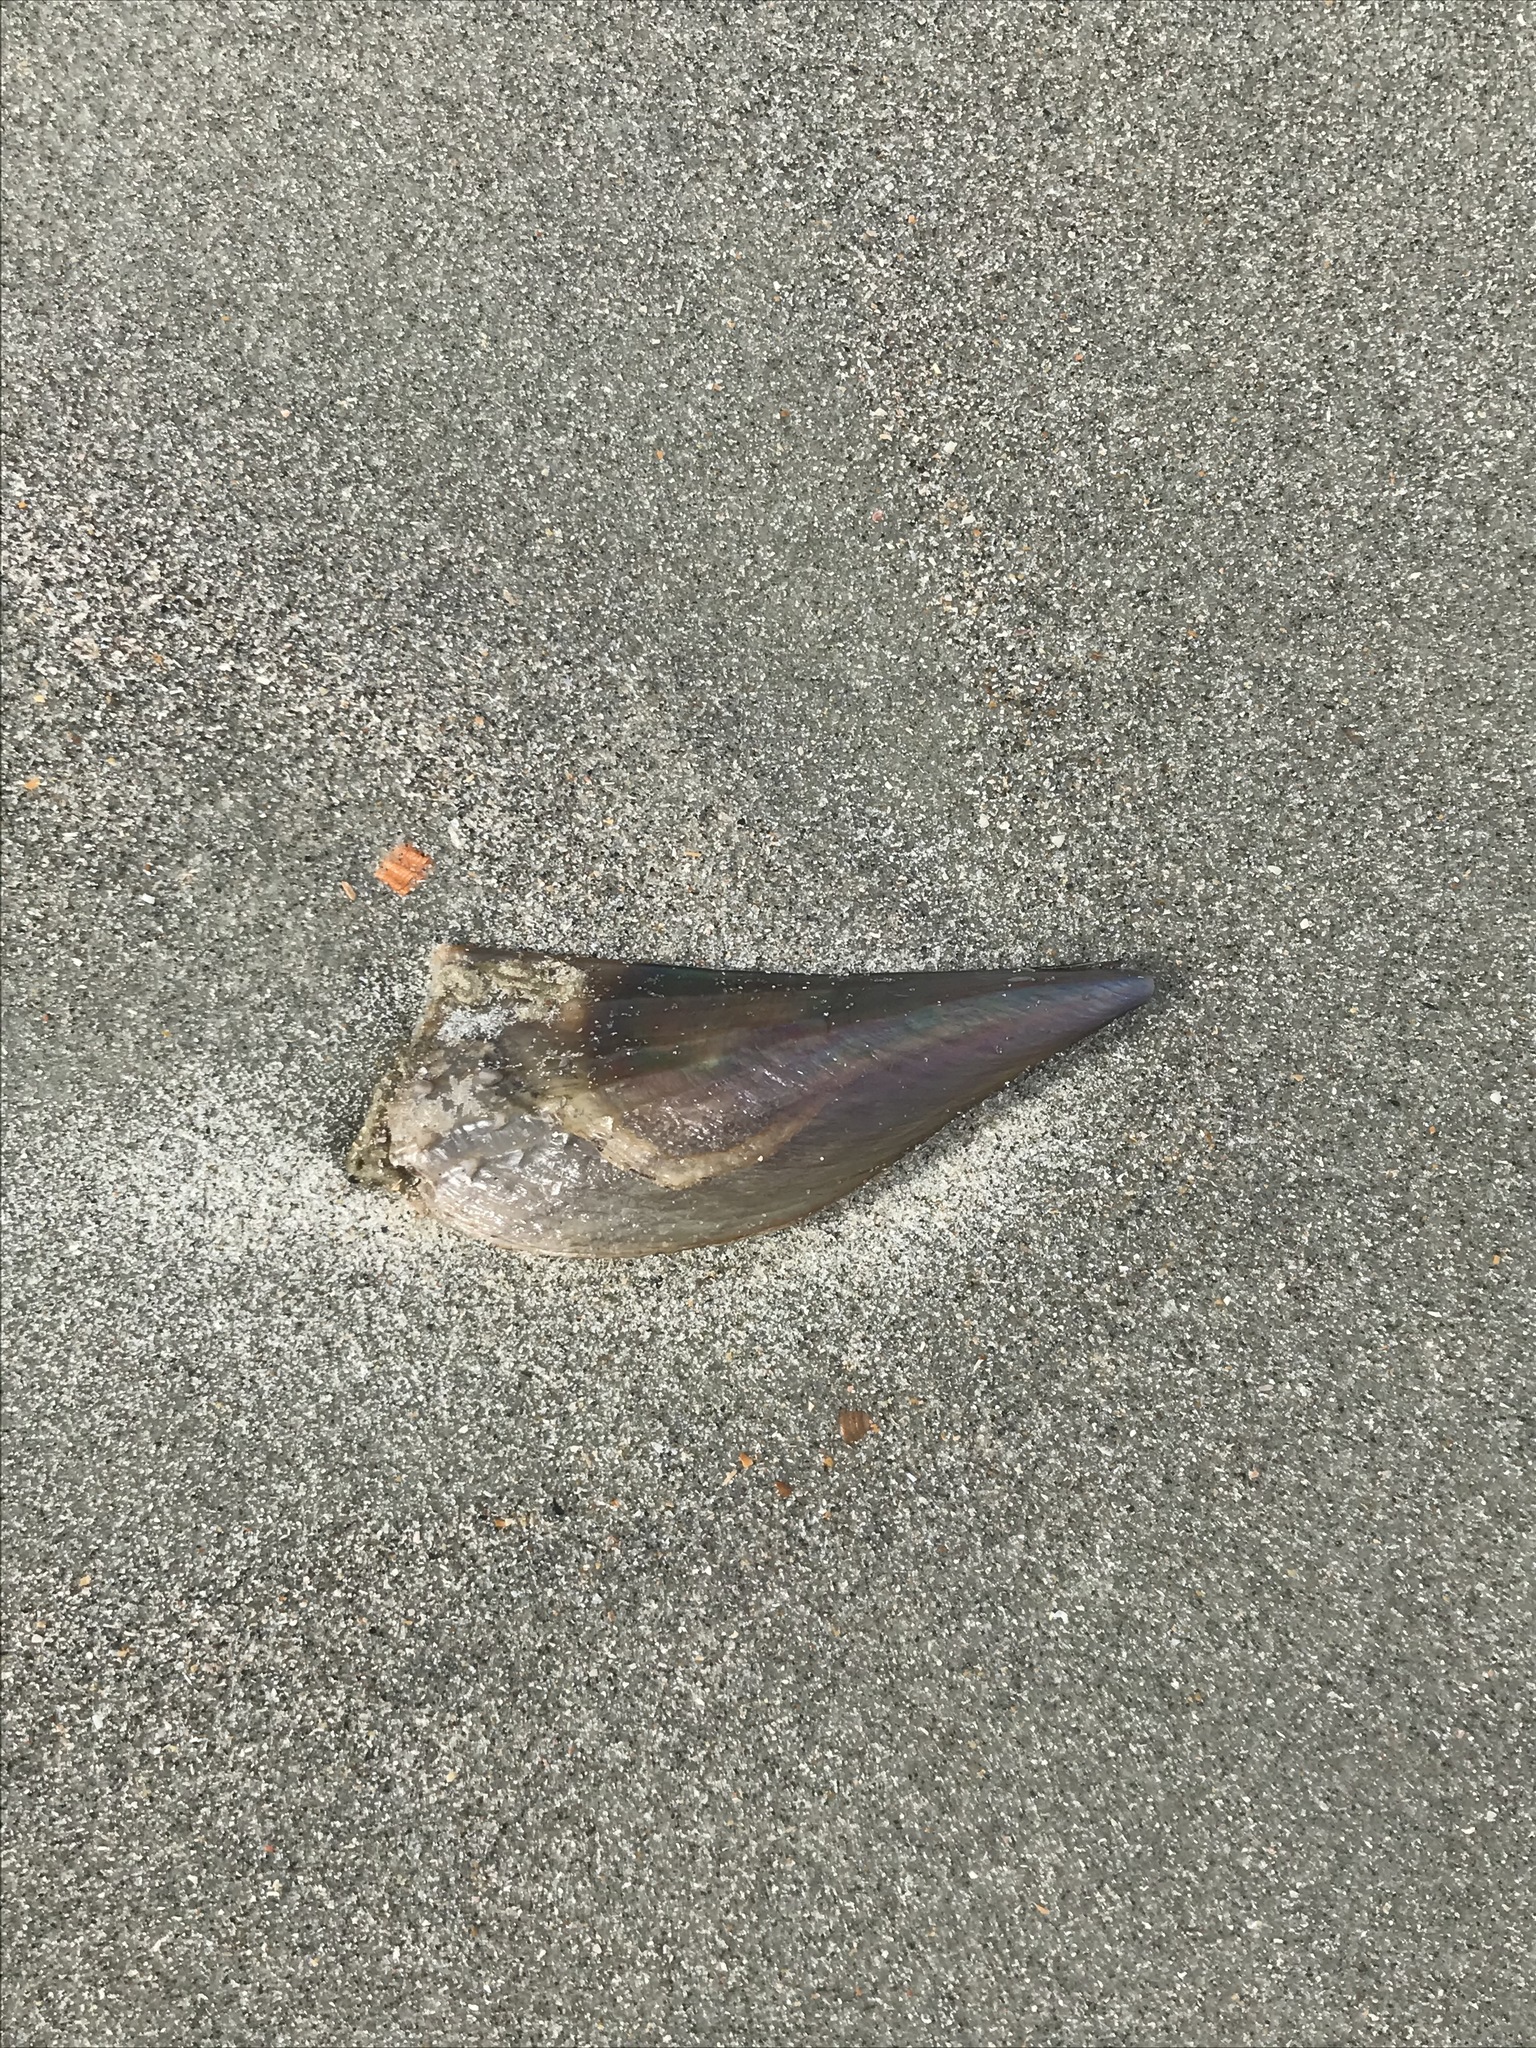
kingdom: Animalia
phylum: Mollusca
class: Bivalvia
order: Ostreida
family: Pinnidae
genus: Atrina
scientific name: Atrina rigida
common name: Stiff penshell
